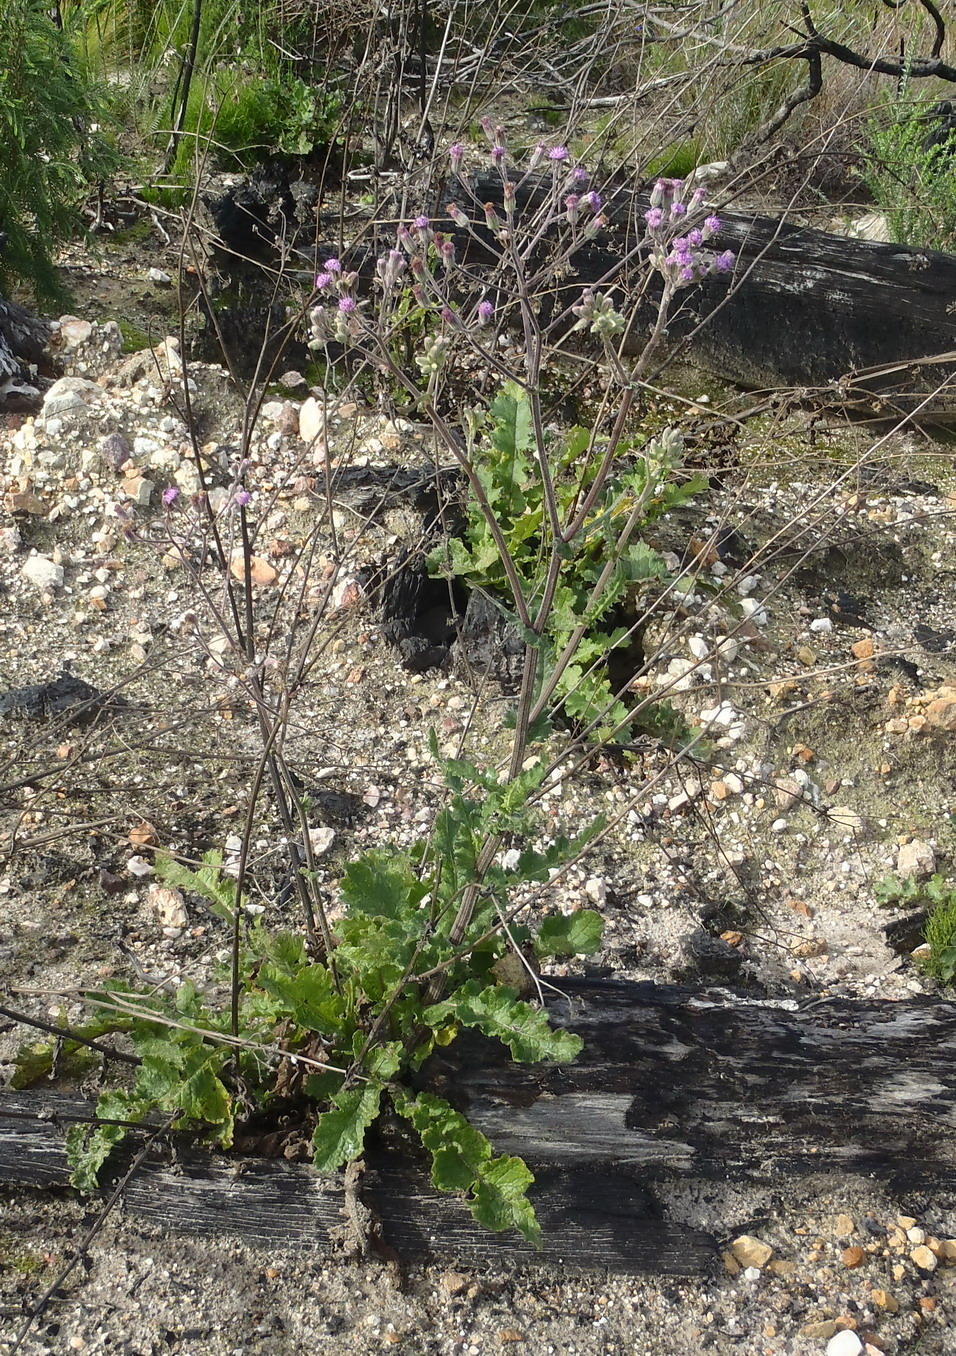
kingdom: Plantae
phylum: Tracheophyta
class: Magnoliopsida
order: Asterales
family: Asteraceae
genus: Senecio
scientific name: Senecio purpureus
